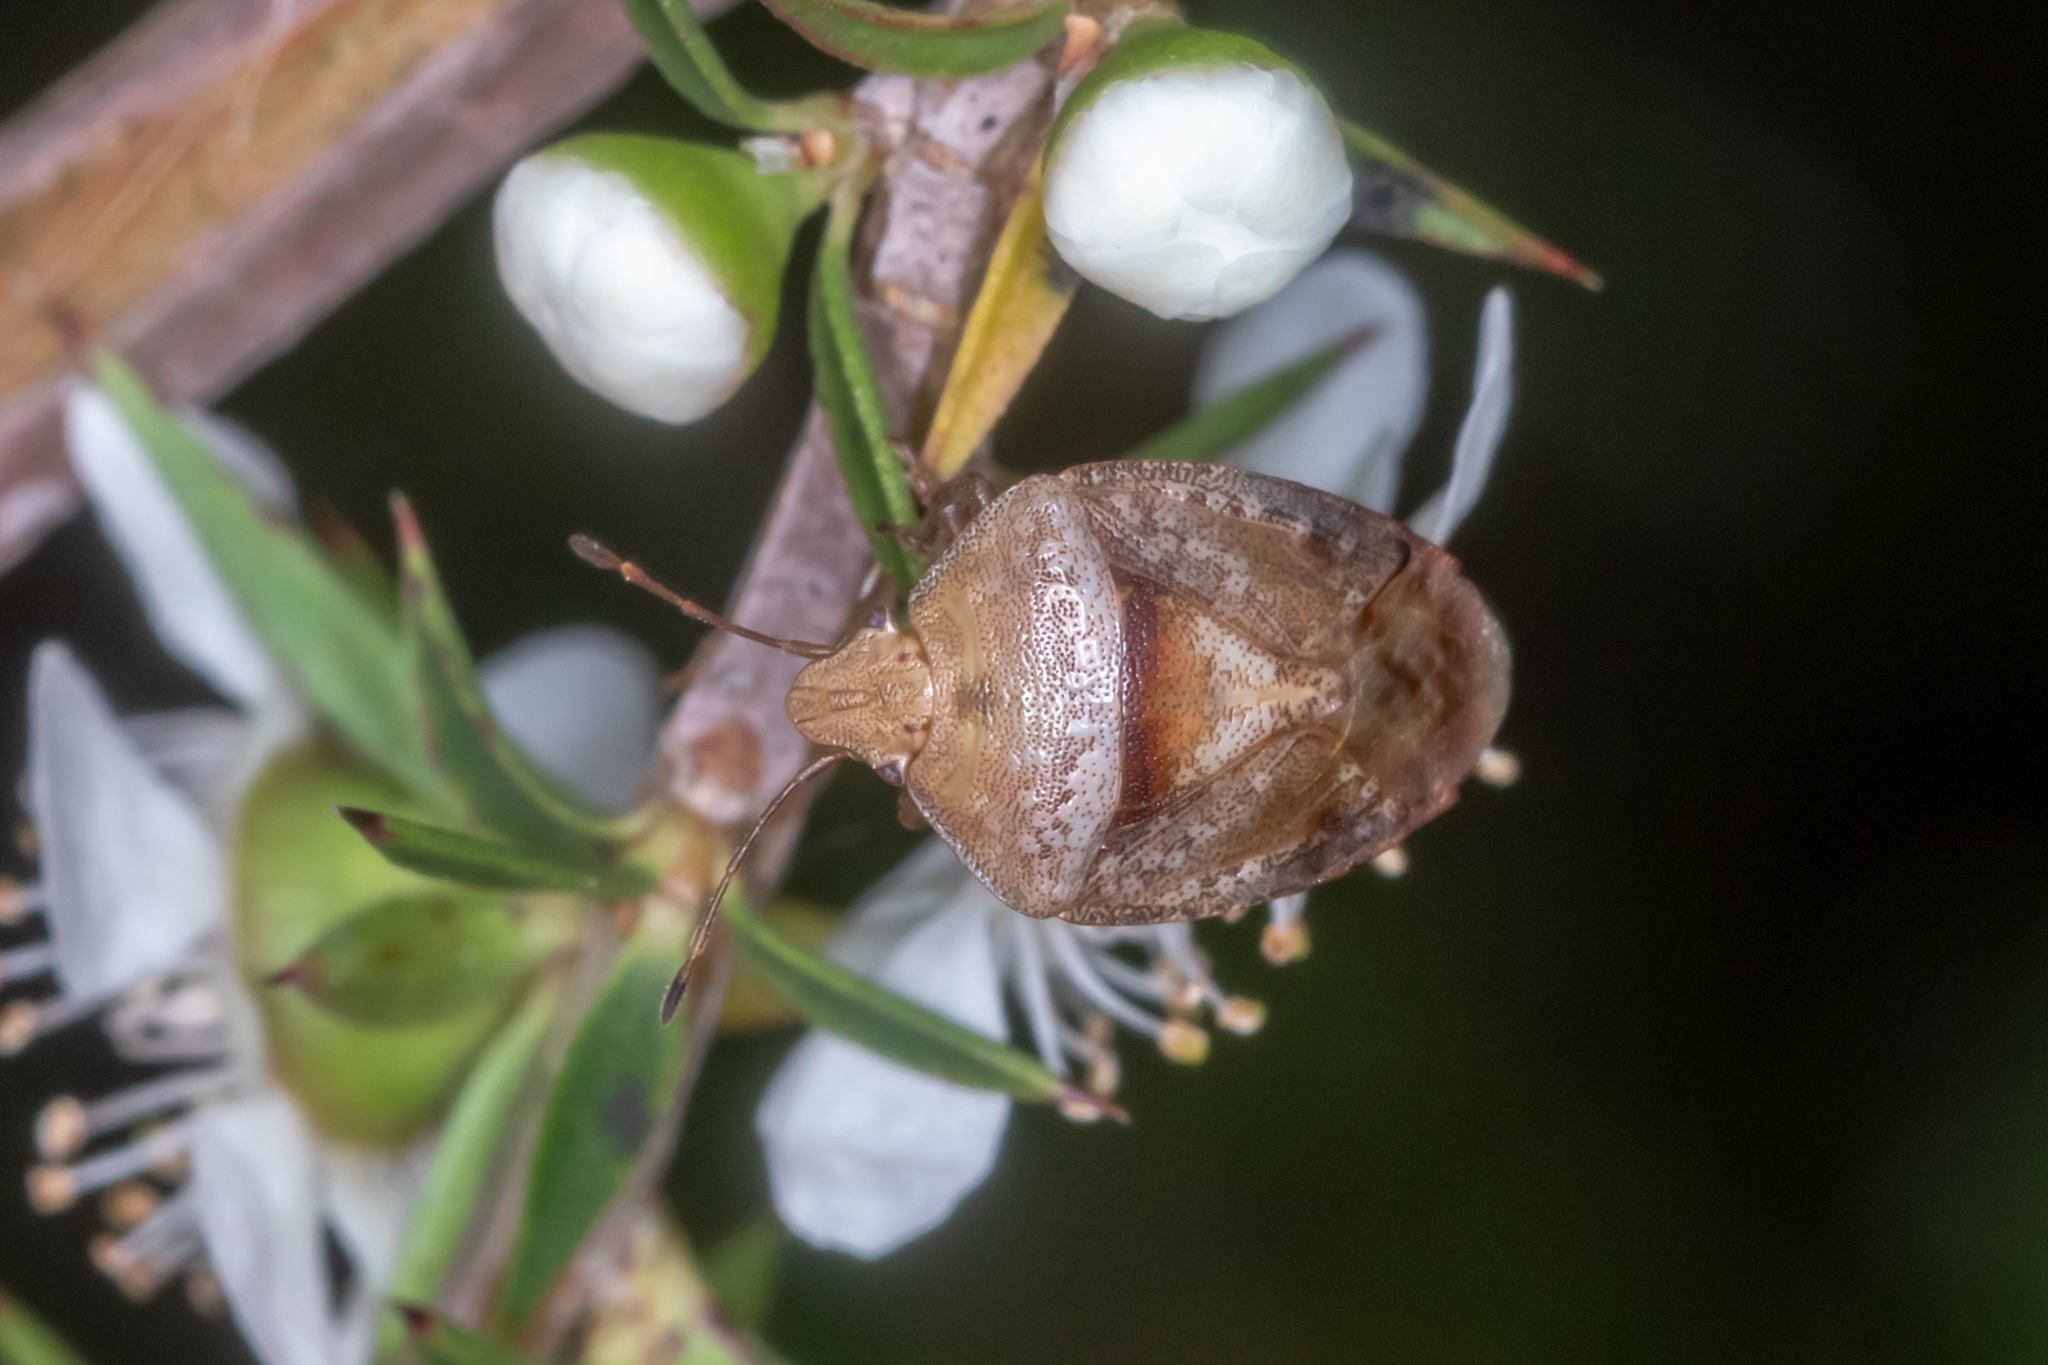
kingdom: Animalia
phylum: Arthropoda
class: Insecta
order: Hemiptera
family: Acanthosomatidae
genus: Eupolemus
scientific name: Eupolemus tasmanicus
